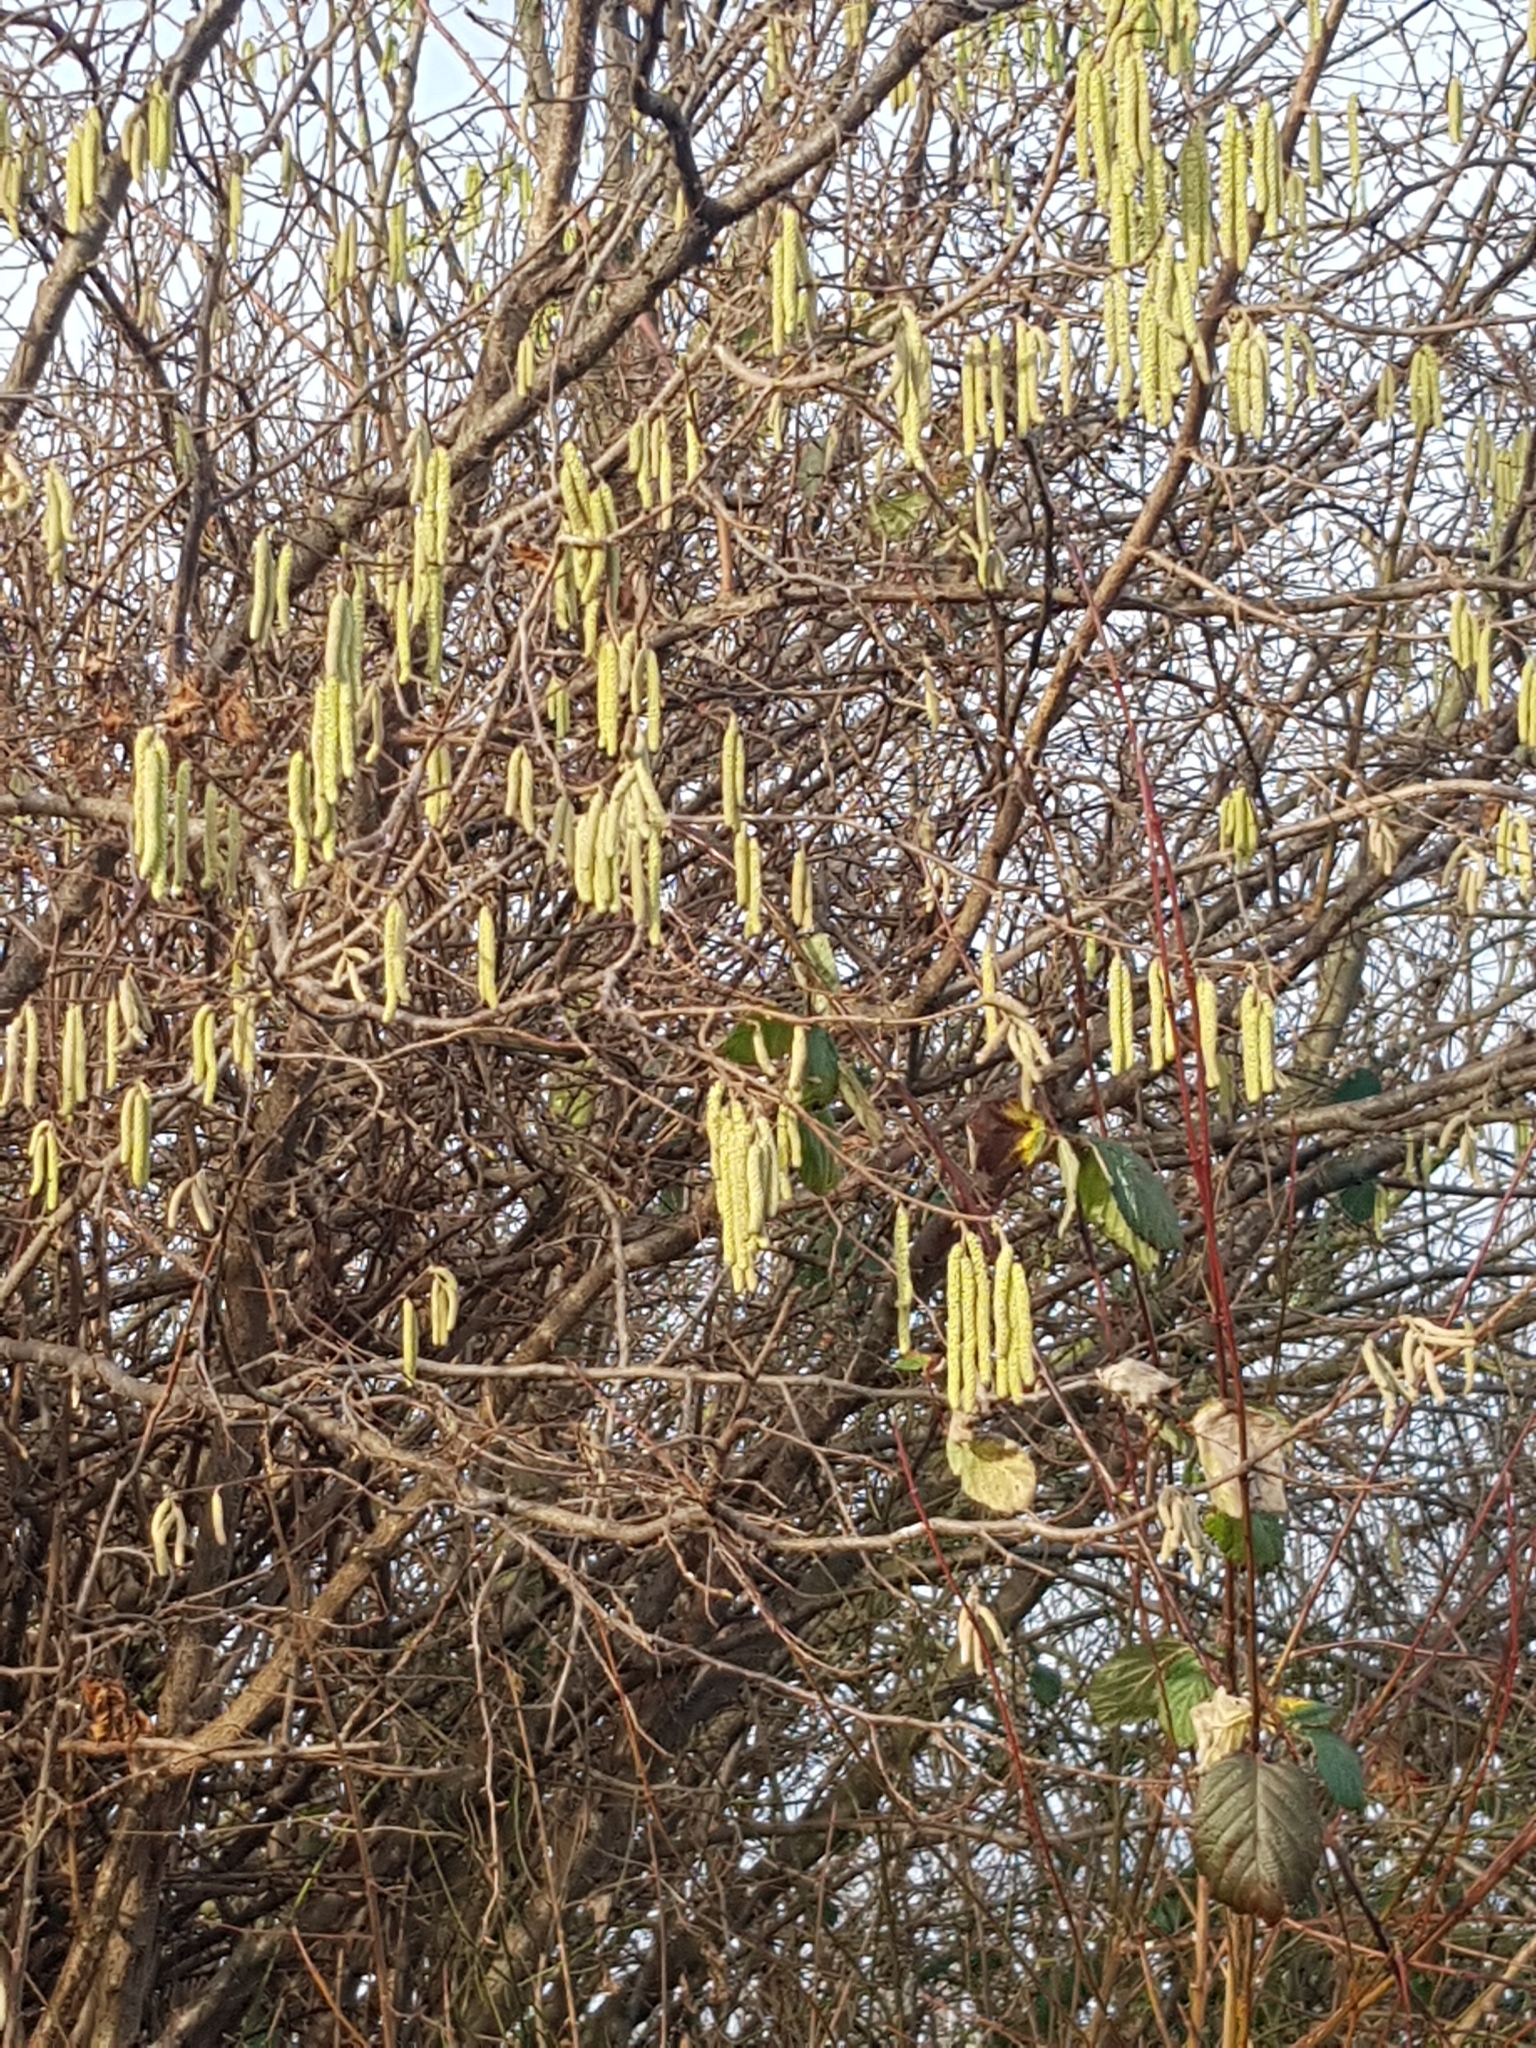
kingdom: Plantae
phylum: Tracheophyta
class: Magnoliopsida
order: Fagales
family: Betulaceae
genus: Corylus
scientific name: Corylus avellana
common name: European hazel
